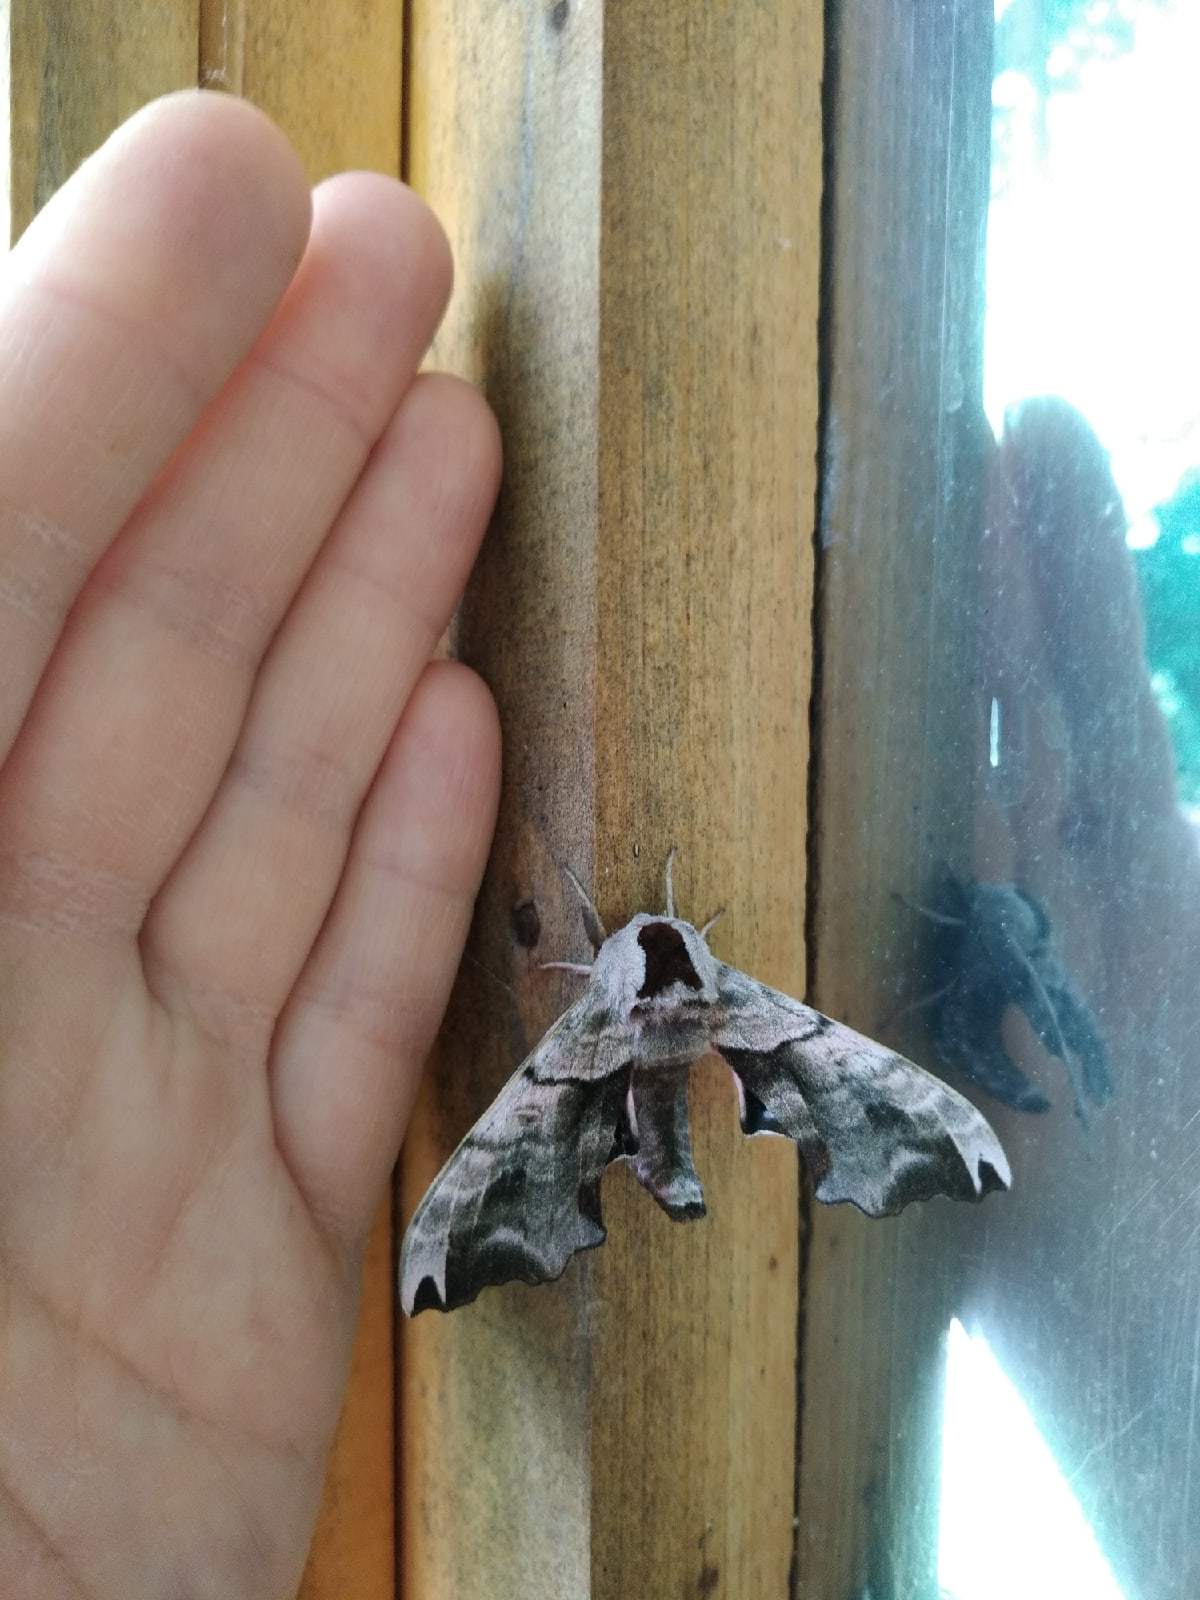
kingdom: Animalia
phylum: Arthropoda
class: Insecta
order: Lepidoptera
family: Sphingidae
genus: Smerinthus
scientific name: Smerinthus caecus
